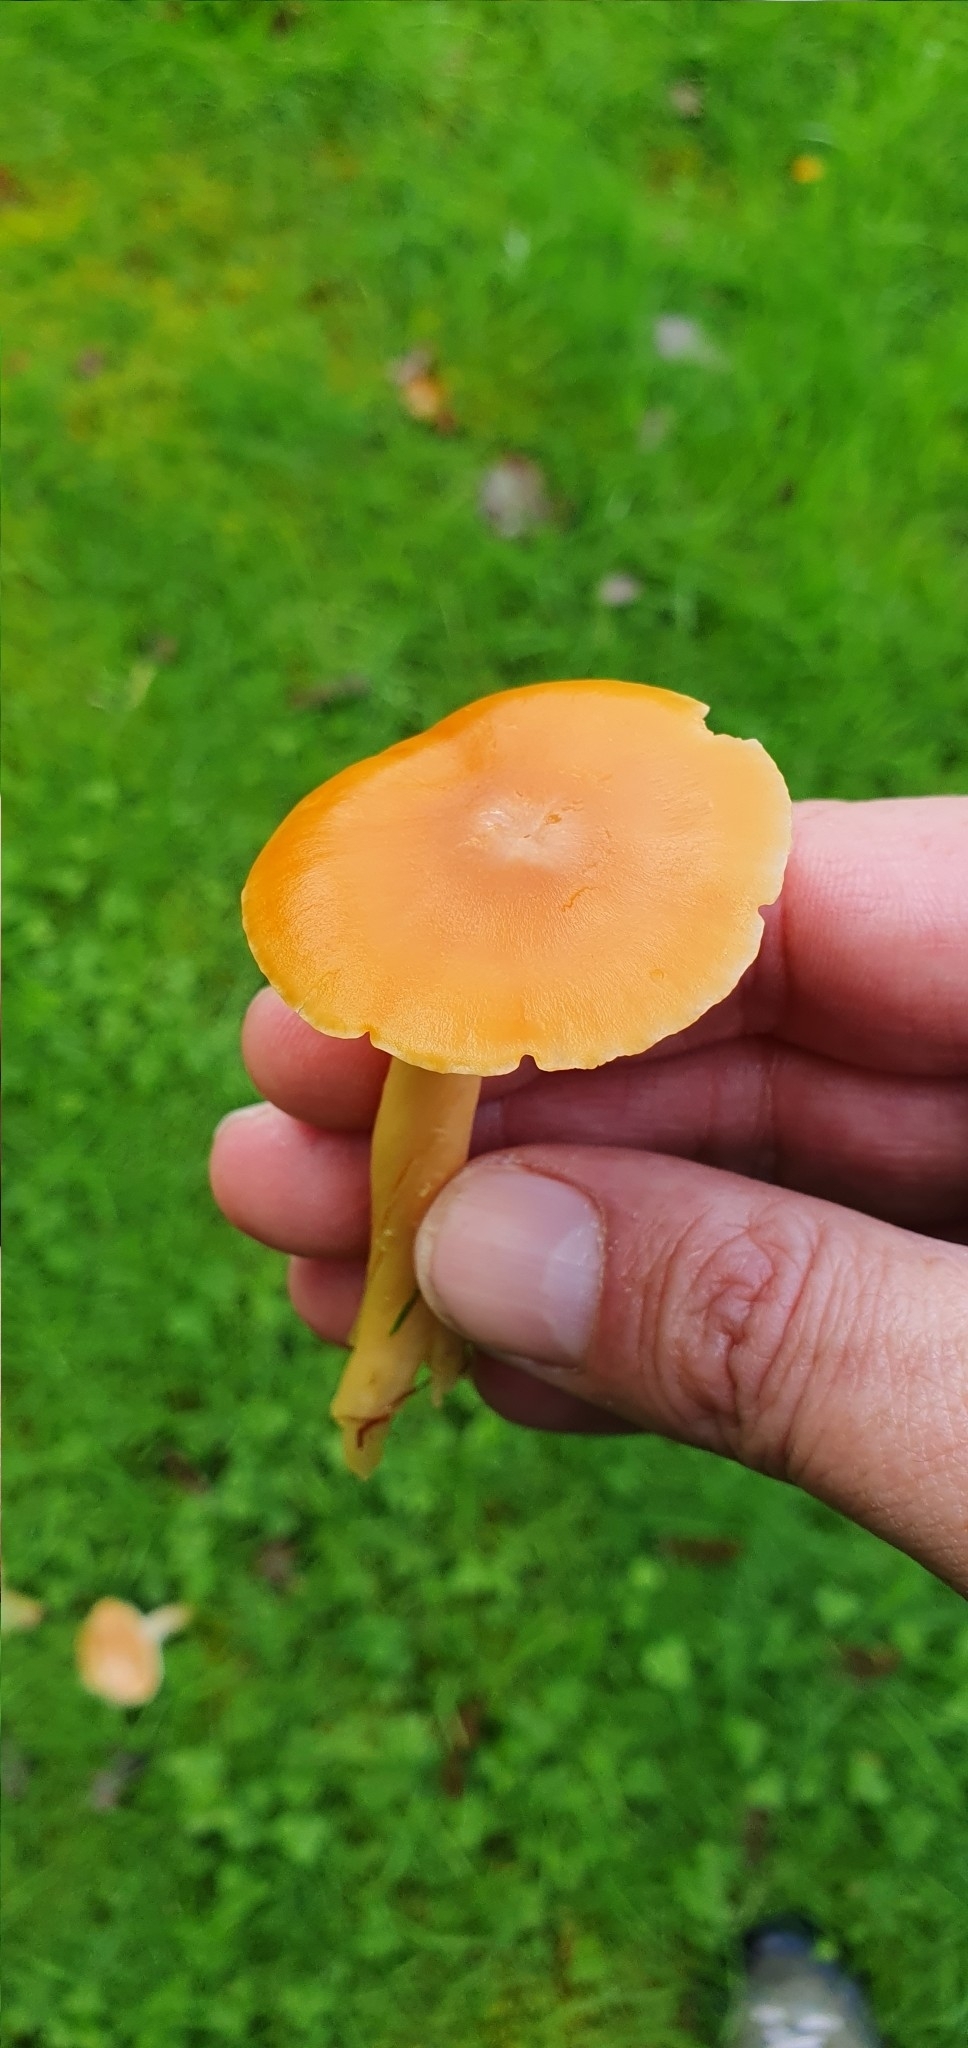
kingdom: Fungi
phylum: Basidiomycota
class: Agaricomycetes
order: Agaricales
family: Hygrophoraceae
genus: Cuphophyllus
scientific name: Cuphophyllus pratensis
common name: Meadow waxcap
